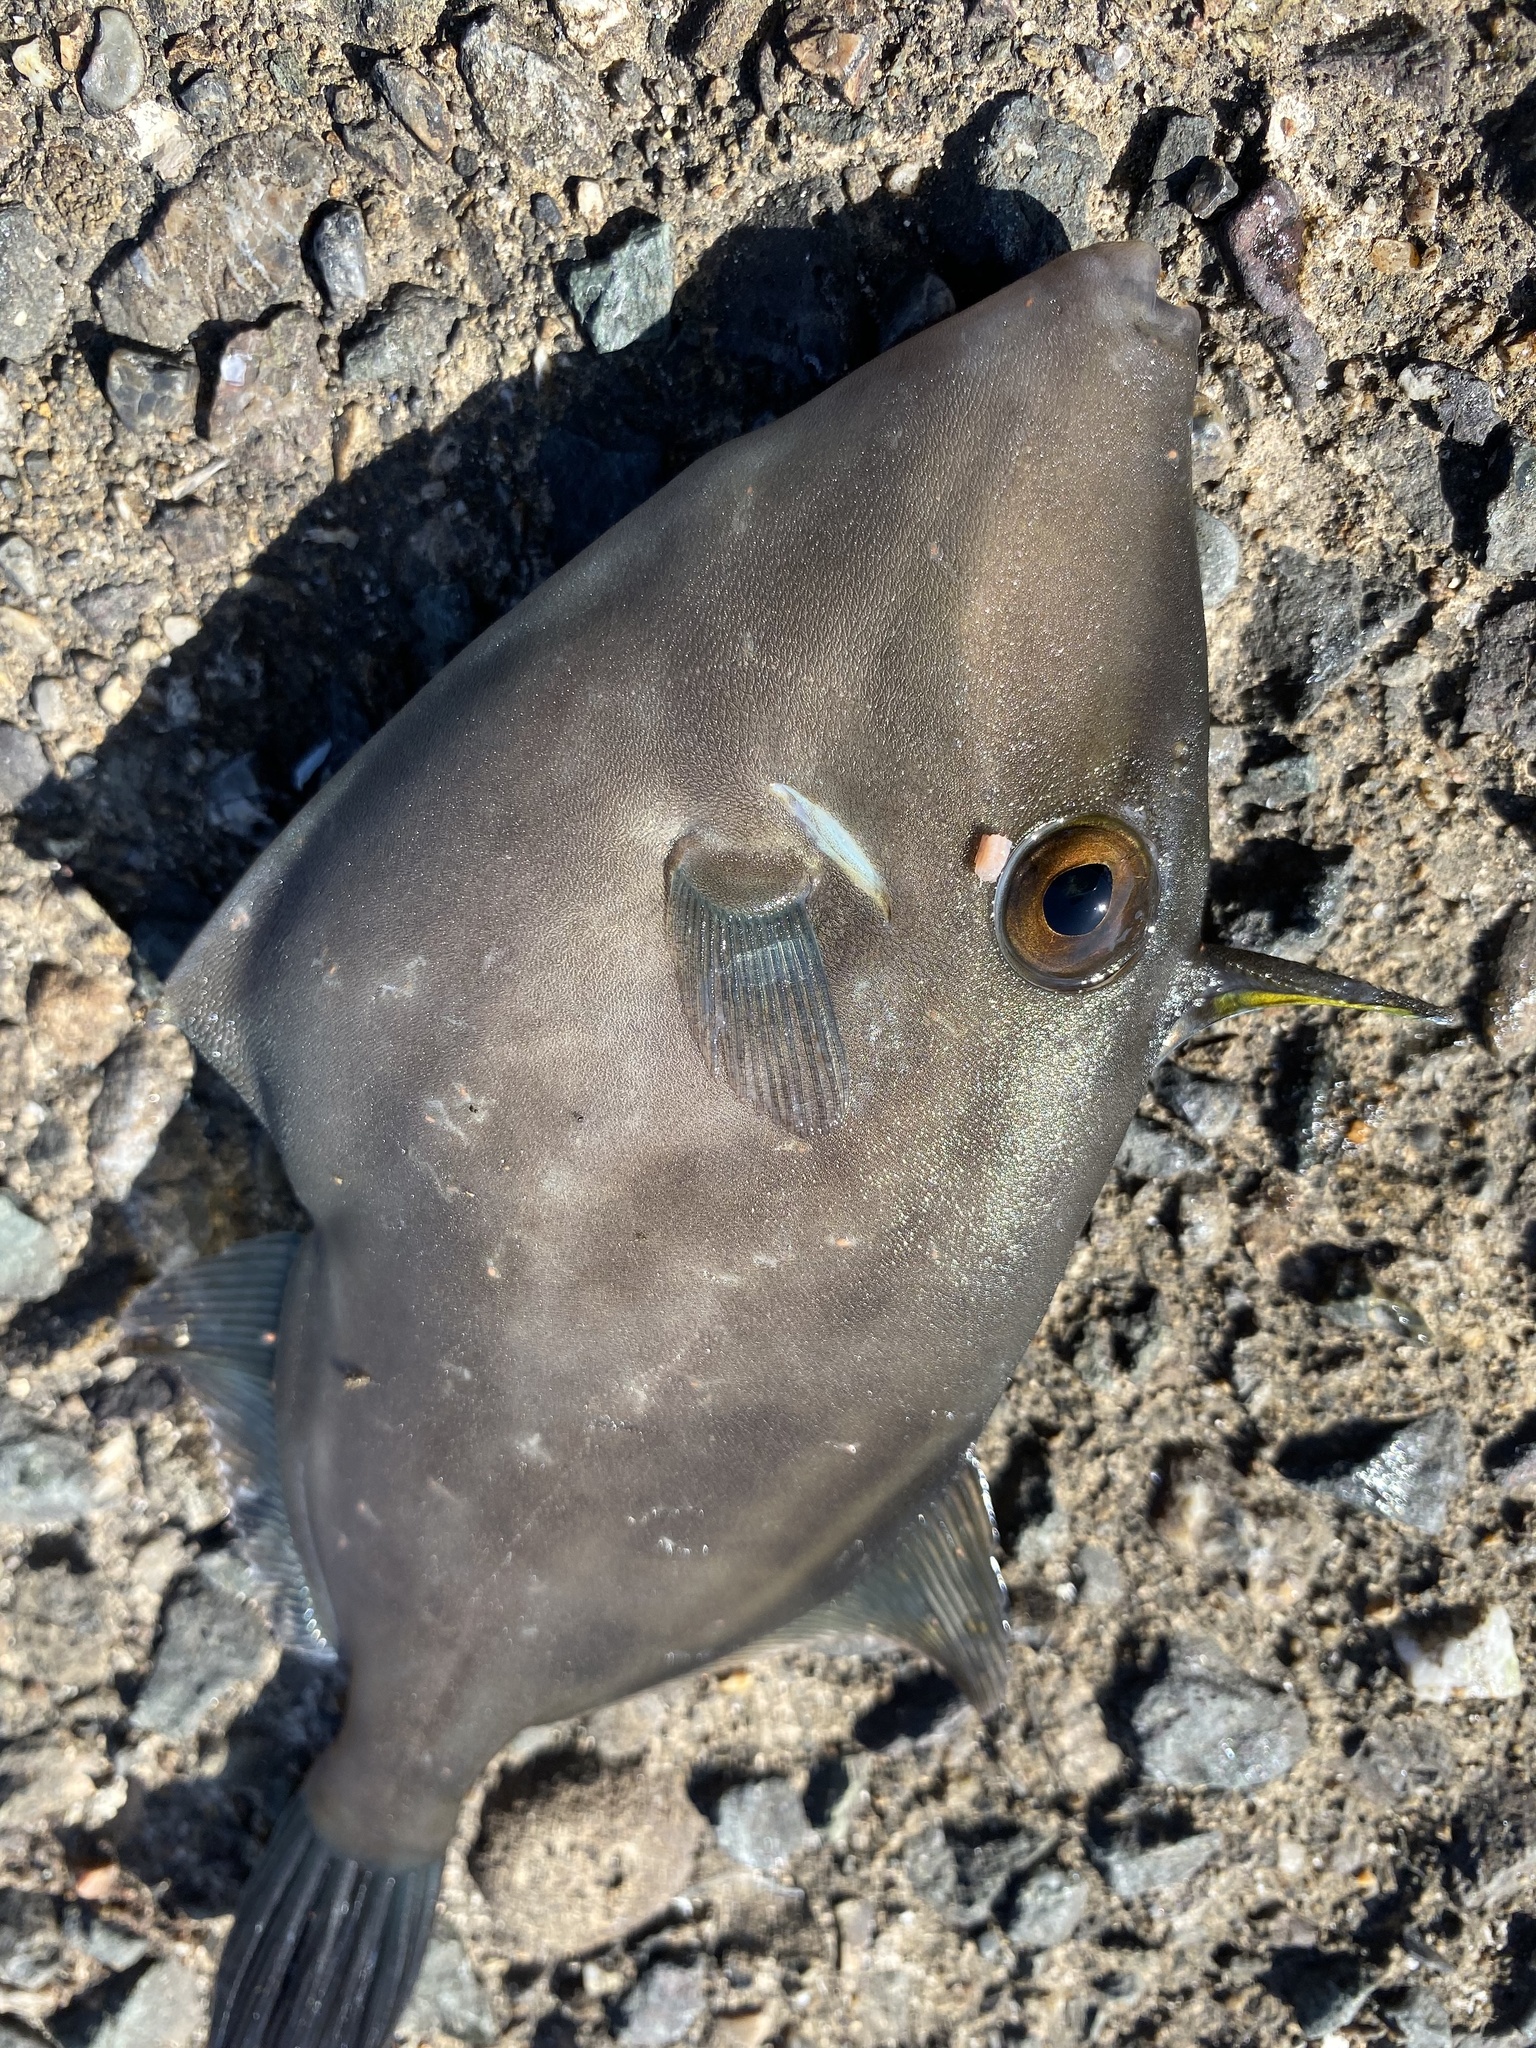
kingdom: Animalia
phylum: Chordata
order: Tetraodontiformes
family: Monacanthidae
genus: Thamnaconus
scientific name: Thamnaconus modestus
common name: Black scraper
